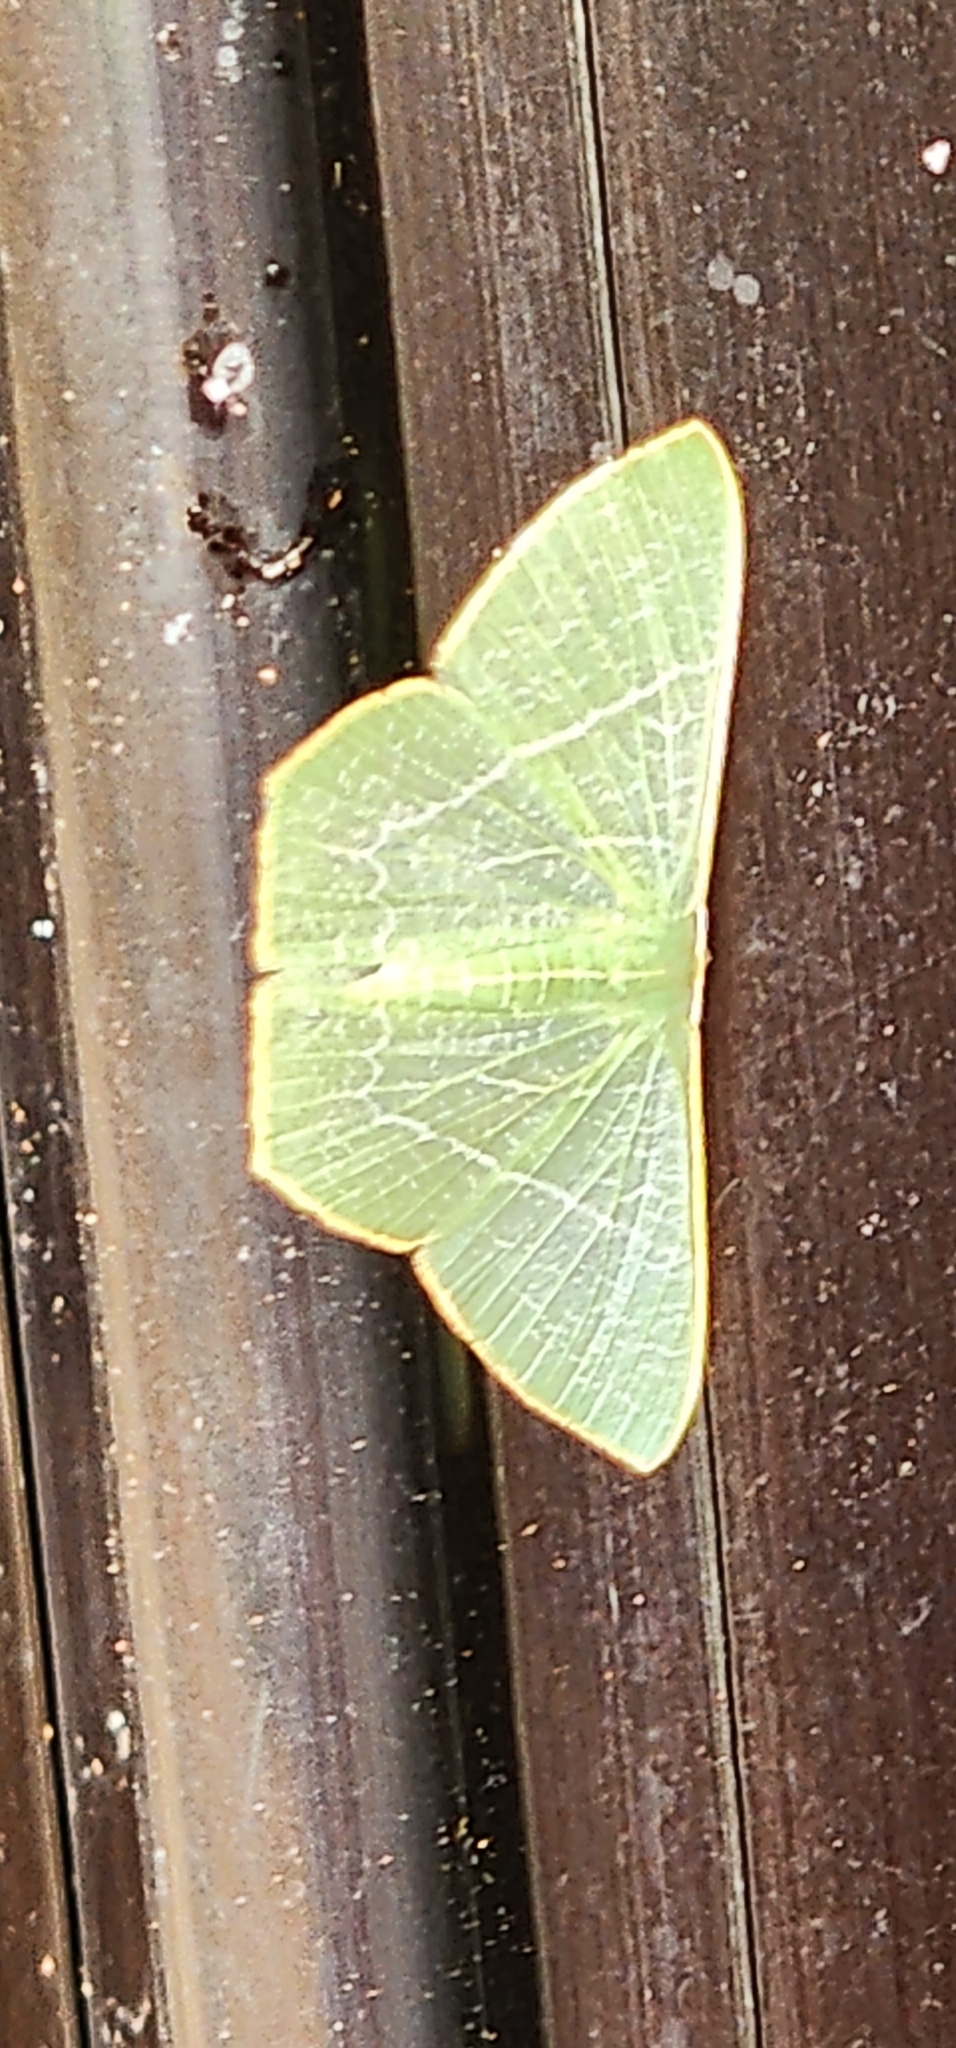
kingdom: Animalia
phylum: Arthropoda
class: Insecta
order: Lepidoptera
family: Geometridae
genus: Thalassodes
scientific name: Thalassodes pilaria
